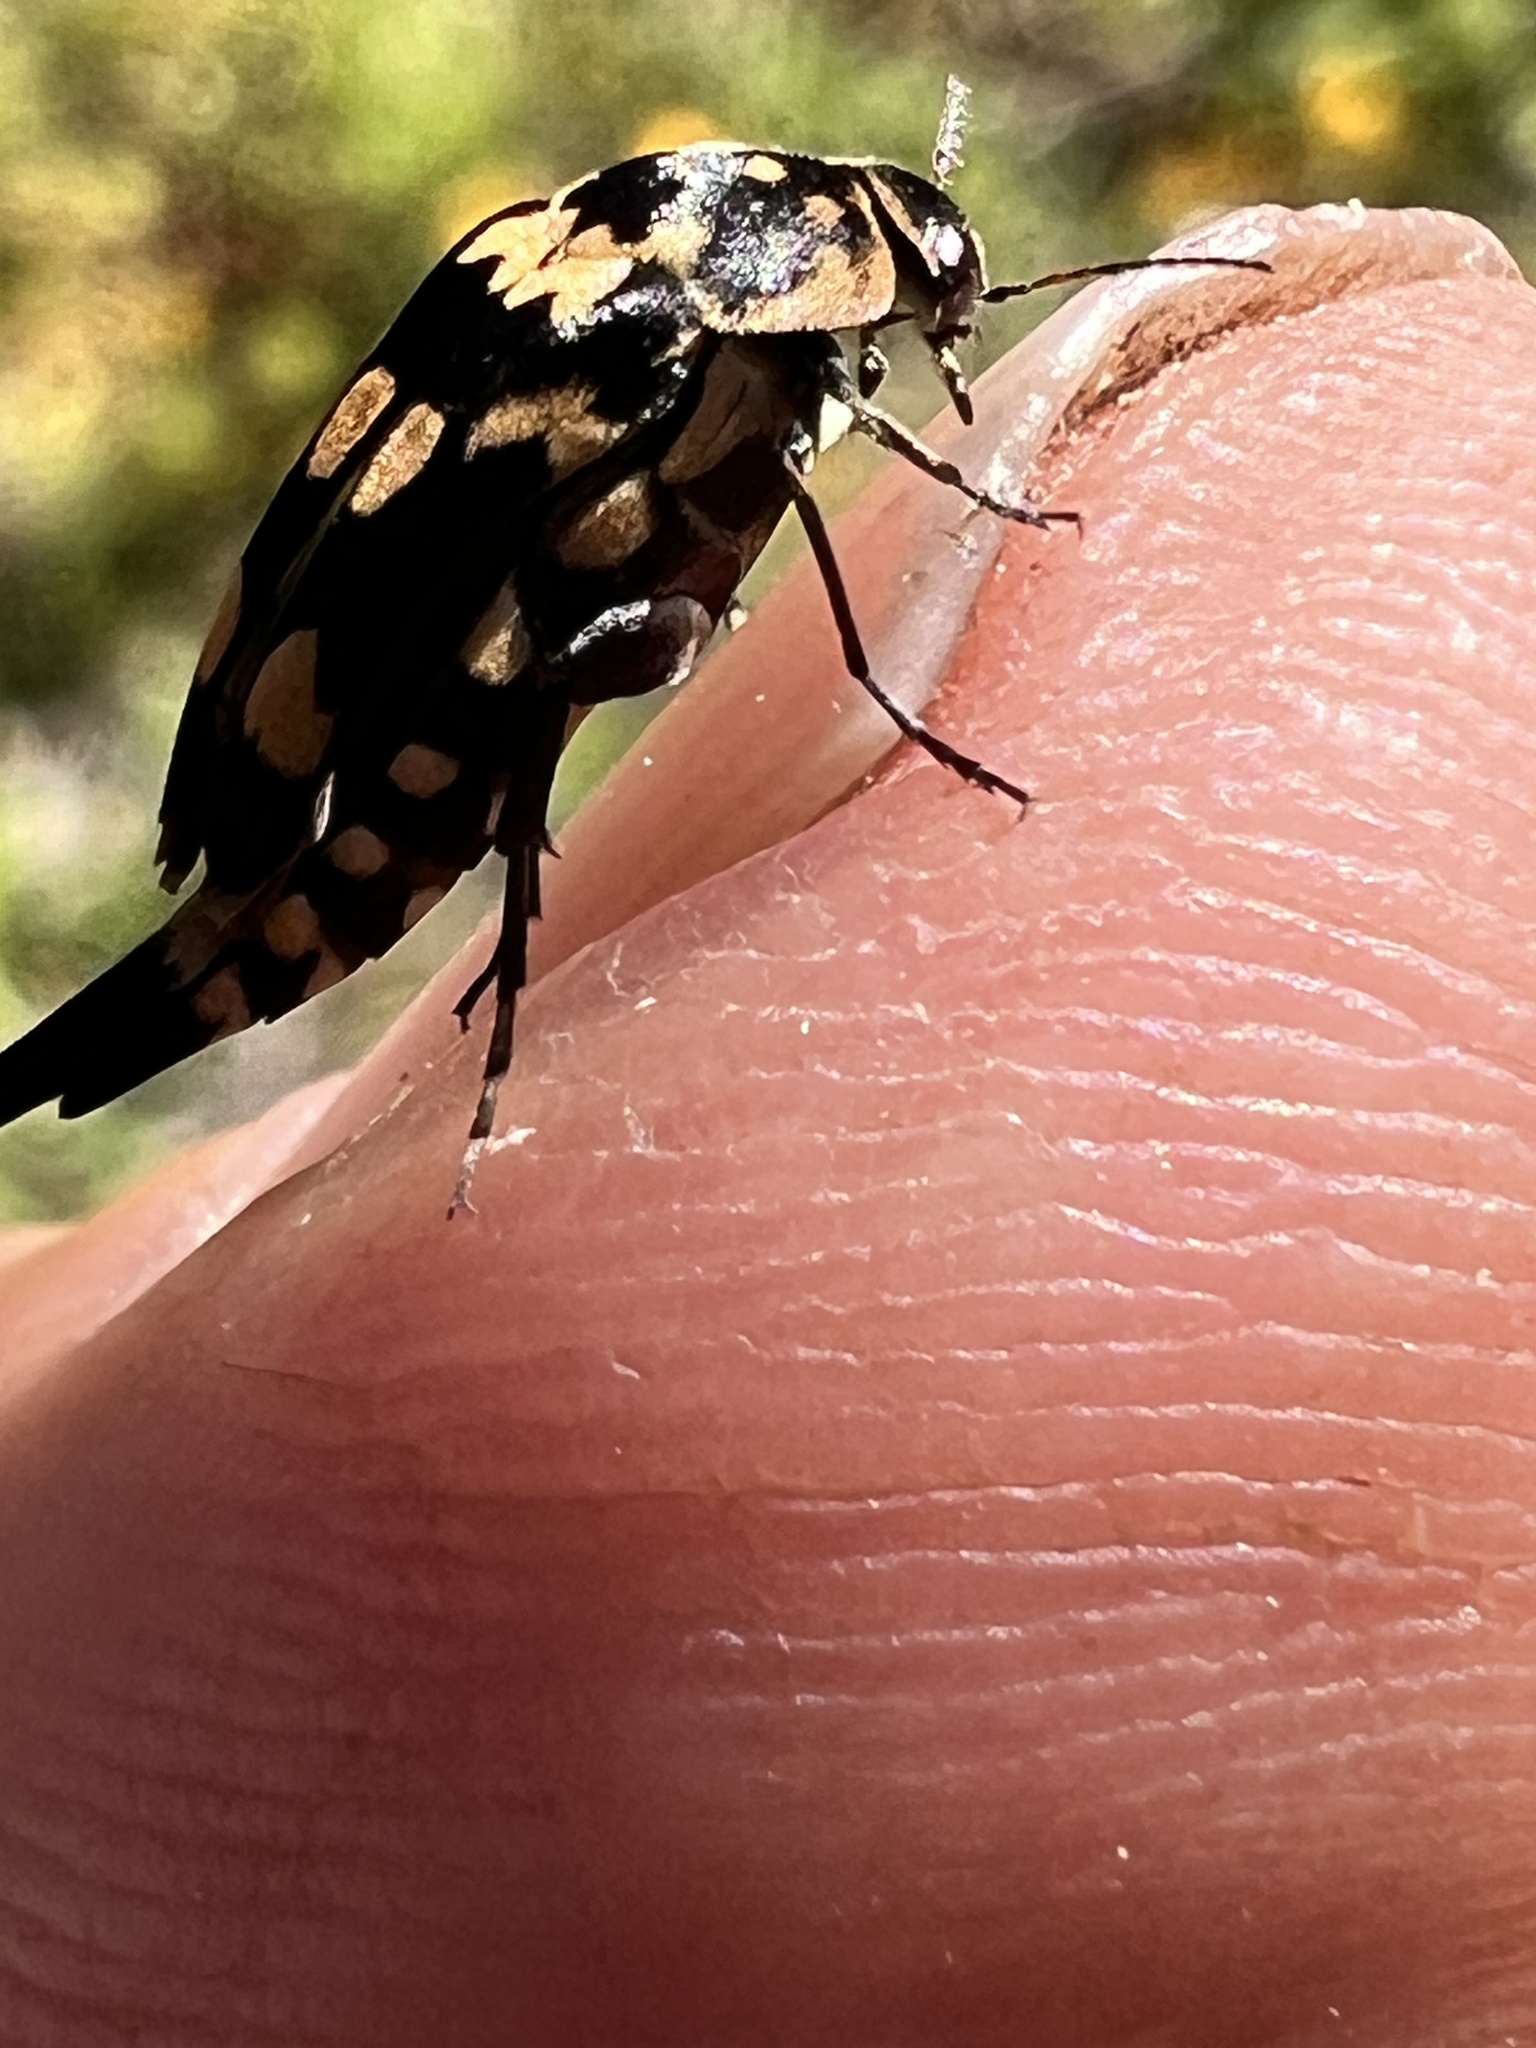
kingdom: Animalia
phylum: Arthropoda
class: Insecta
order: Coleoptera
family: Mordellidae
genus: Hoshihananomia
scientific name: Hoshihananomia
